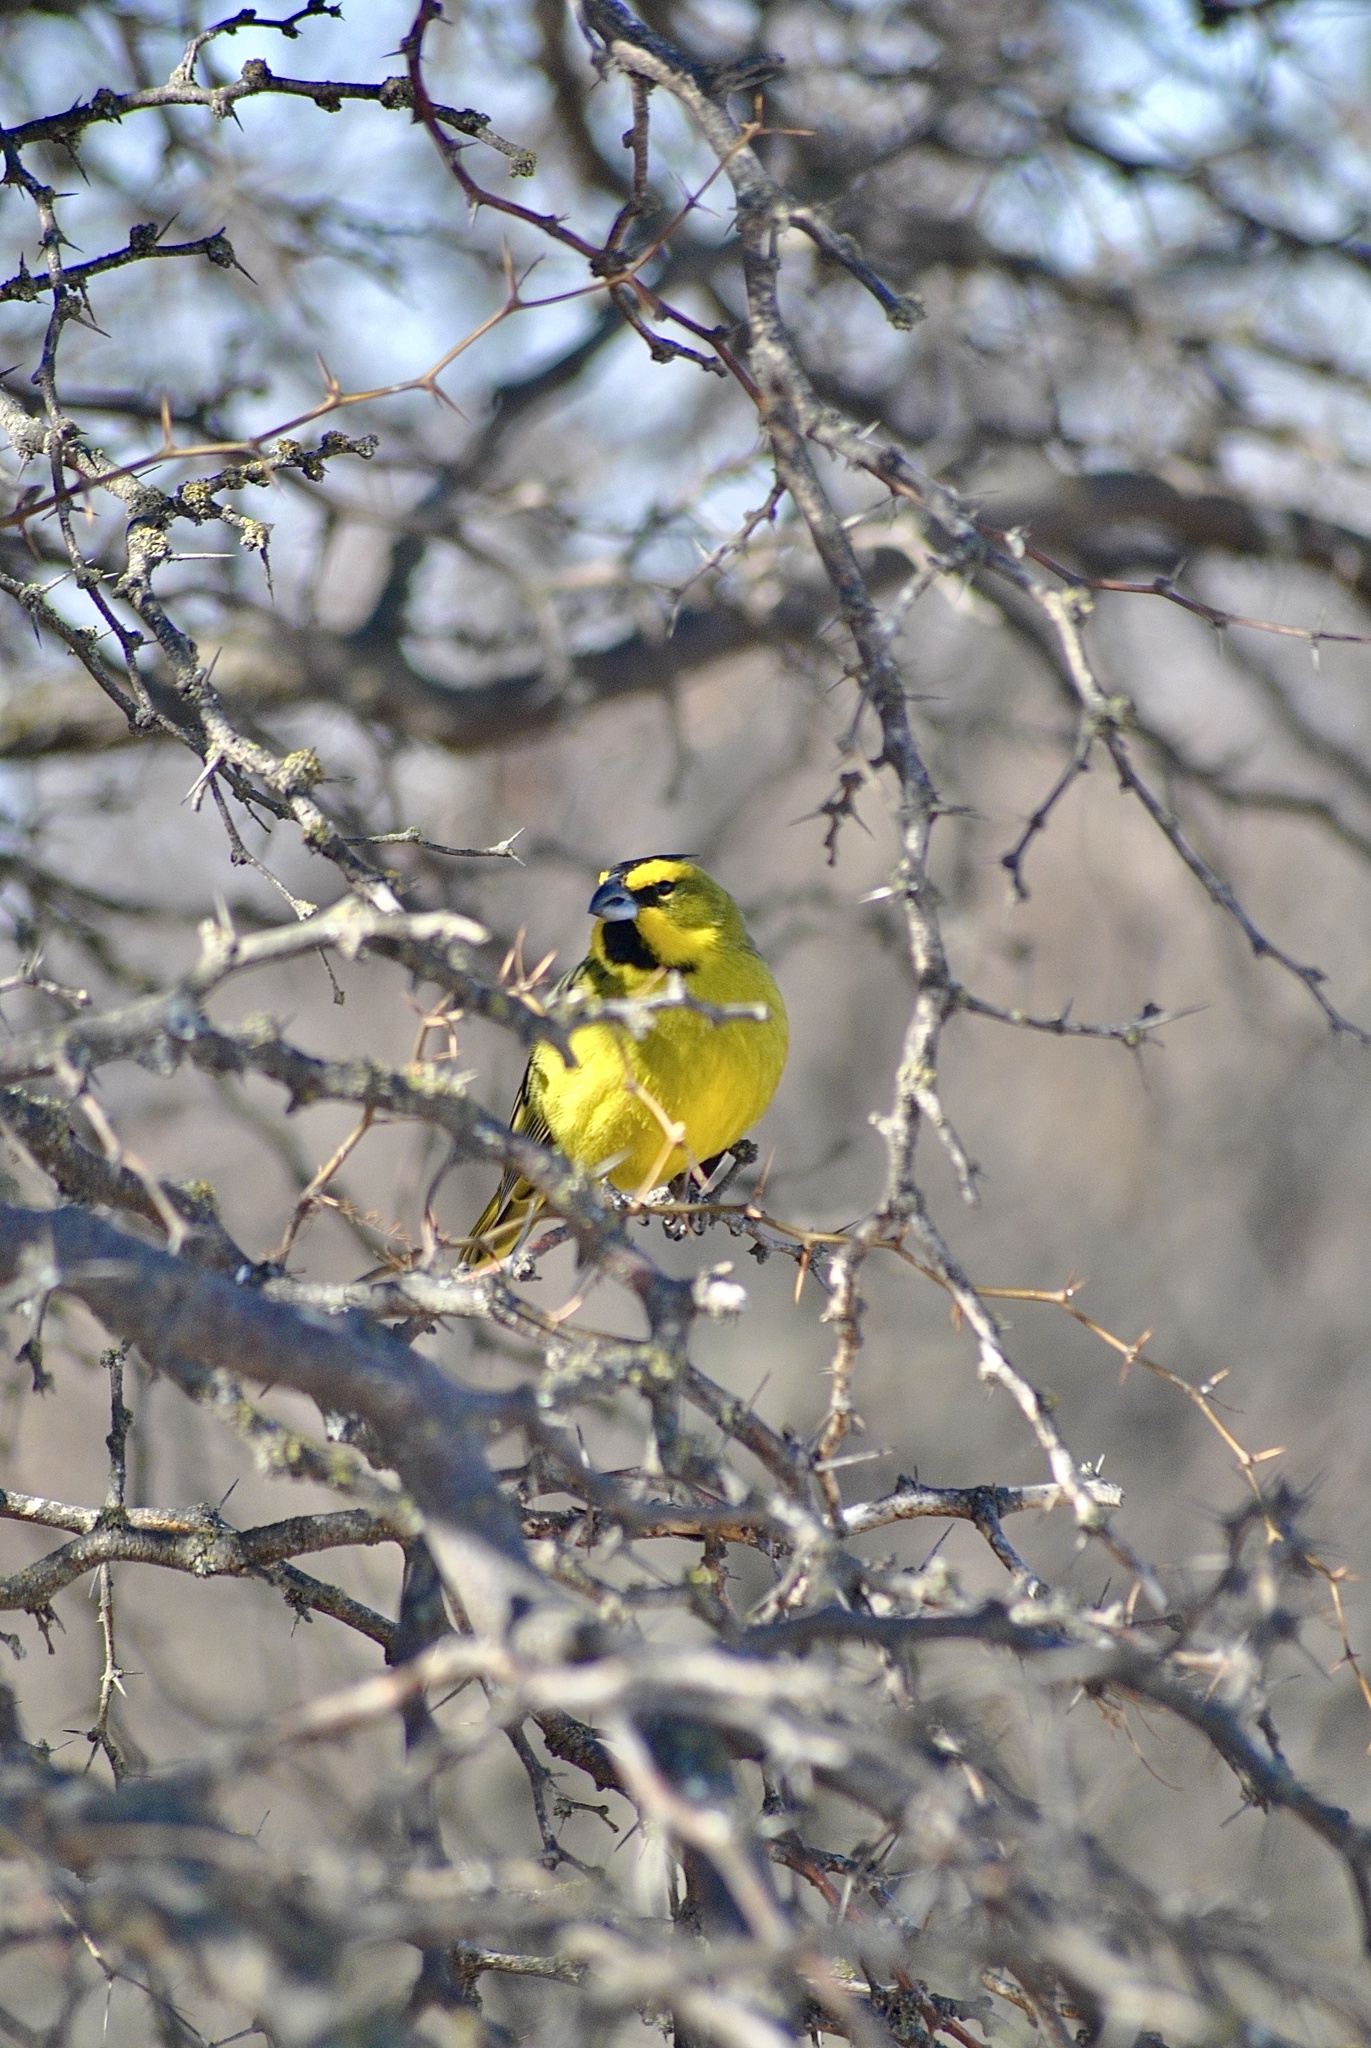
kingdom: Animalia
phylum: Chordata
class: Aves
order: Passeriformes
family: Thraupidae
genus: Gubernatrix
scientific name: Gubernatrix cristata
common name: Yellow cardinal
